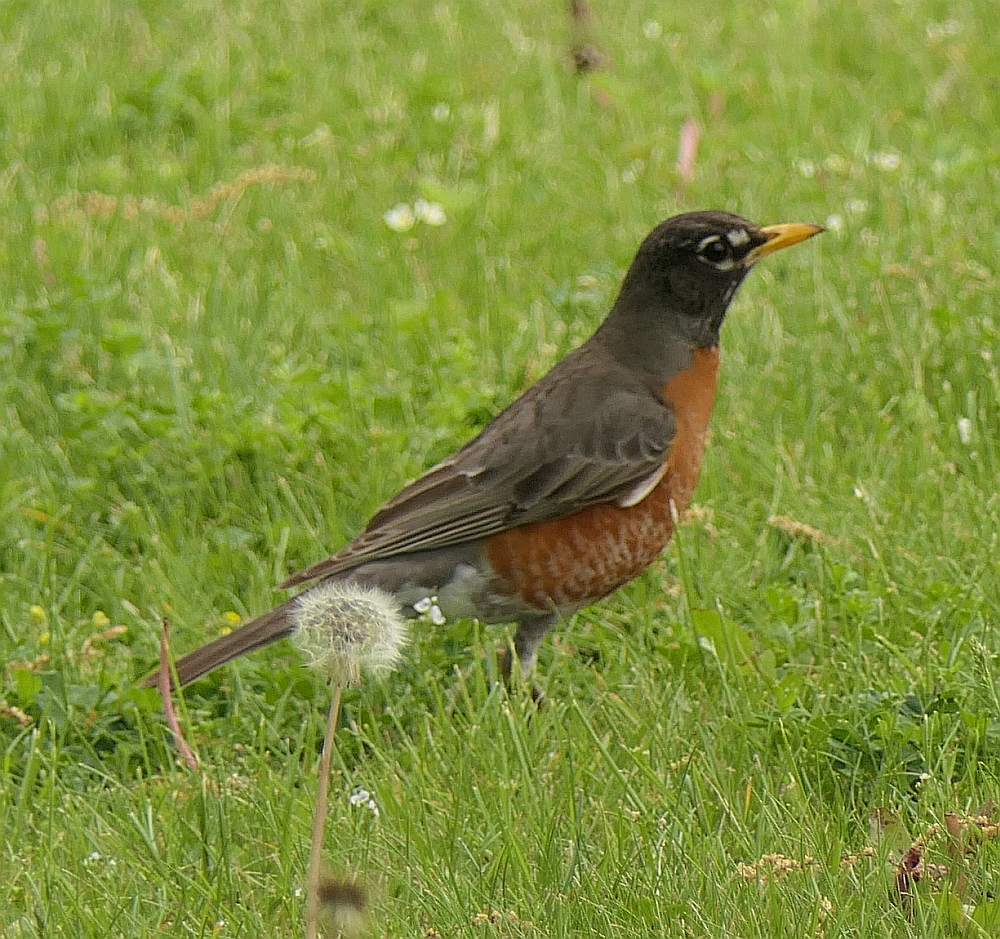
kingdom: Animalia
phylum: Chordata
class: Aves
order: Passeriformes
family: Turdidae
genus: Turdus
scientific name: Turdus migratorius
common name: American robin
